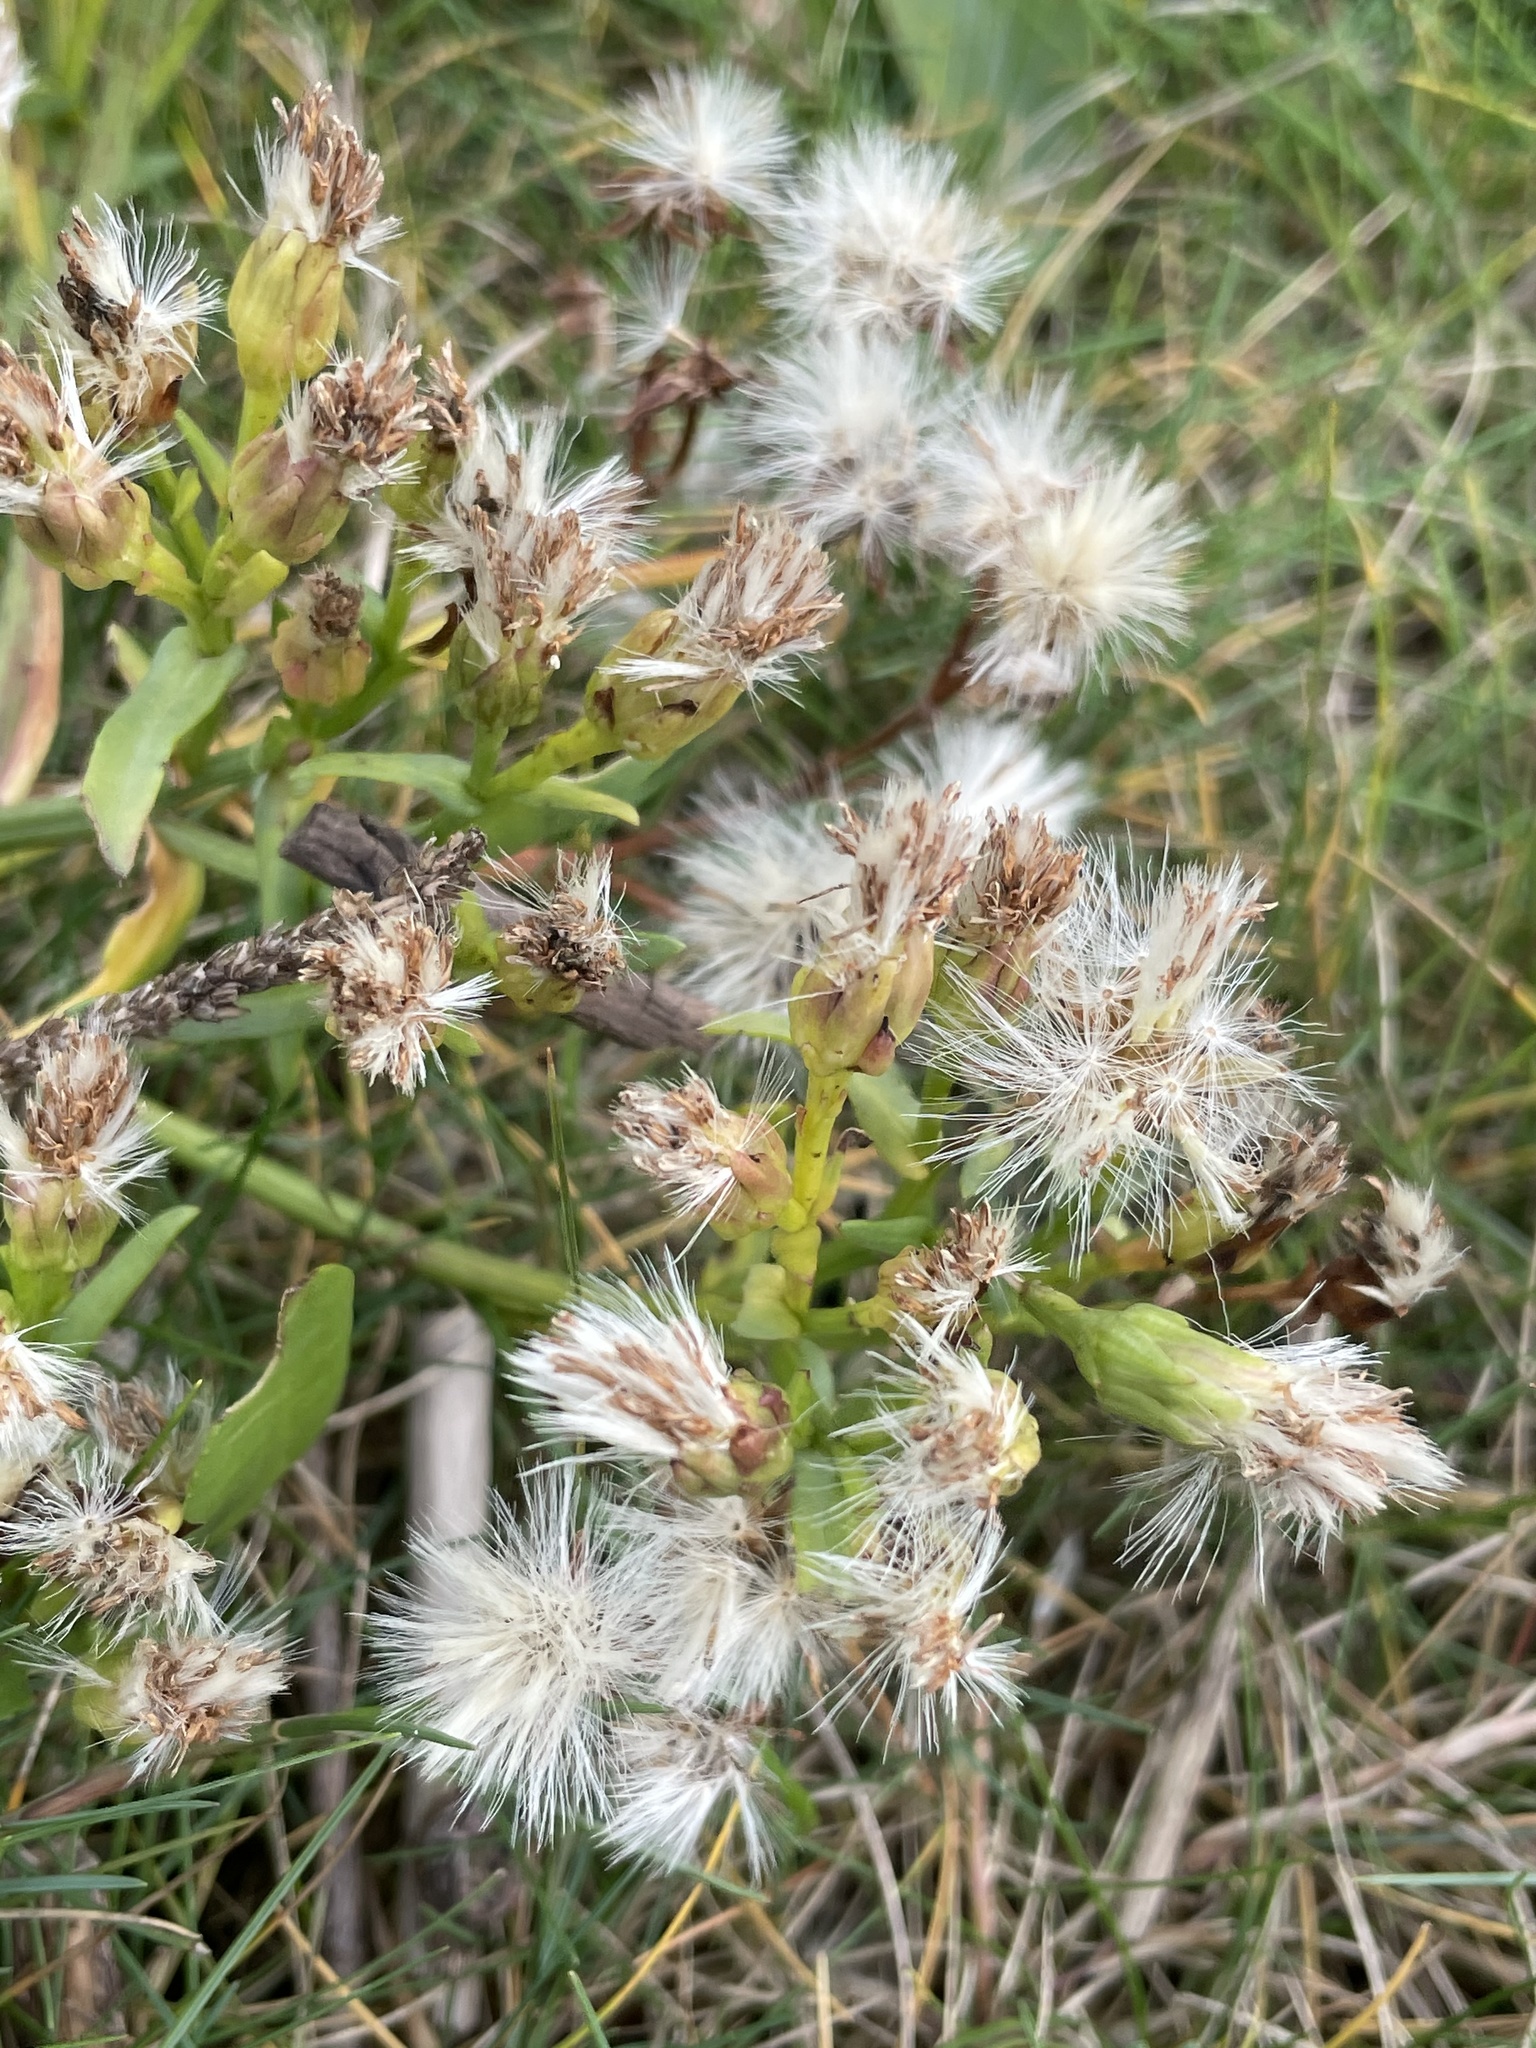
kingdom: Plantae
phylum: Tracheophyta
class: Magnoliopsida
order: Asterales
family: Asteraceae
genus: Tripolium
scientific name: Tripolium pannonicum
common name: Sea aster
